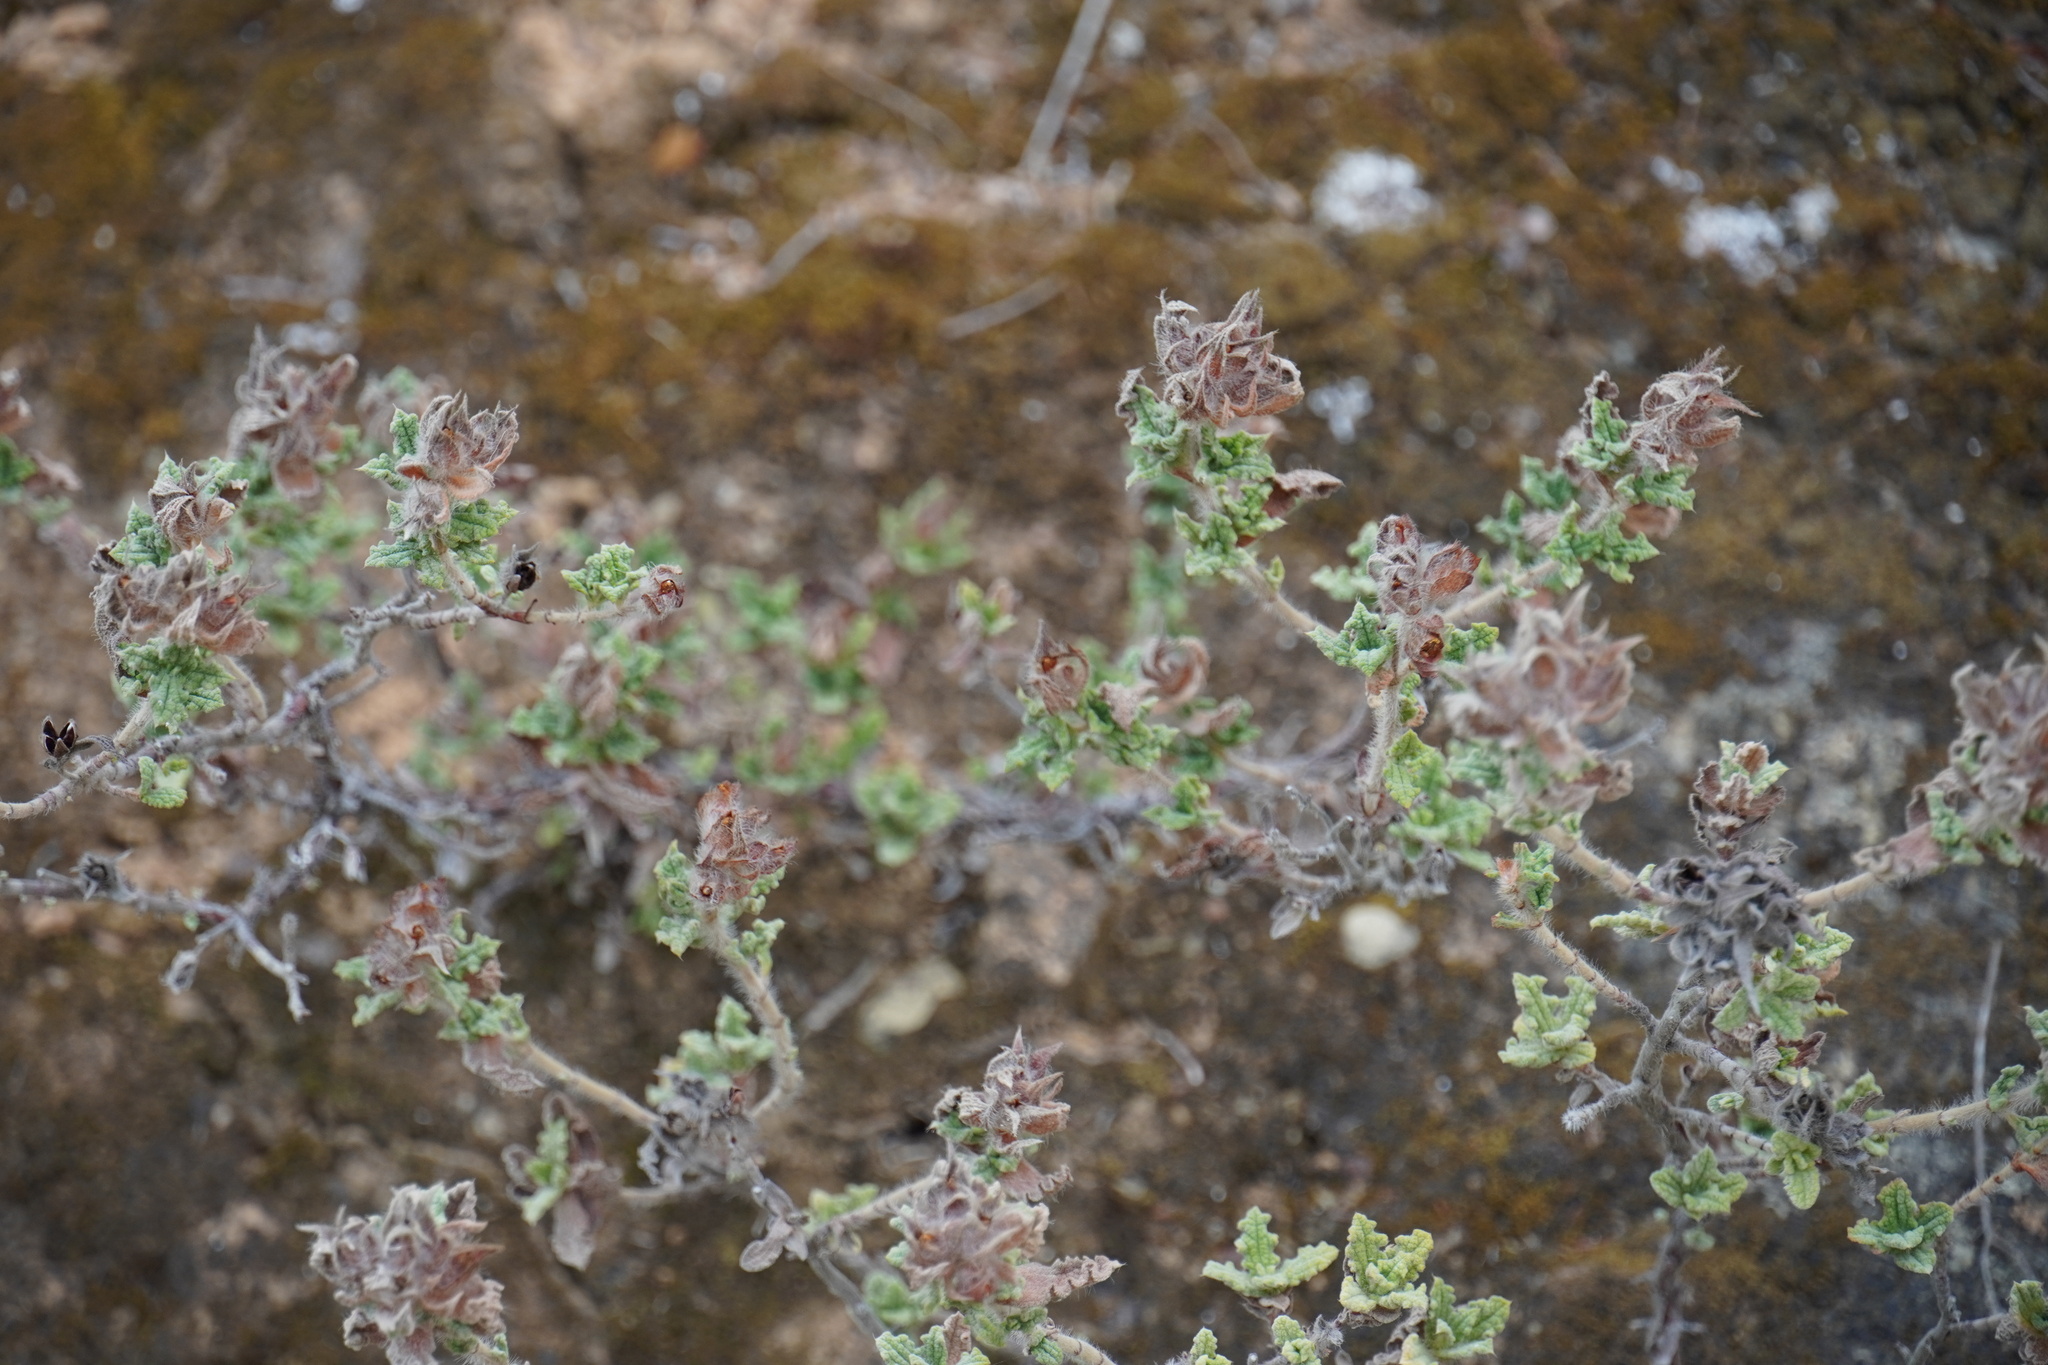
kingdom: Plantae
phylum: Tracheophyta
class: Magnoliopsida
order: Malvales
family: Cistaceae
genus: Cistus
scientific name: Cistus crispus
